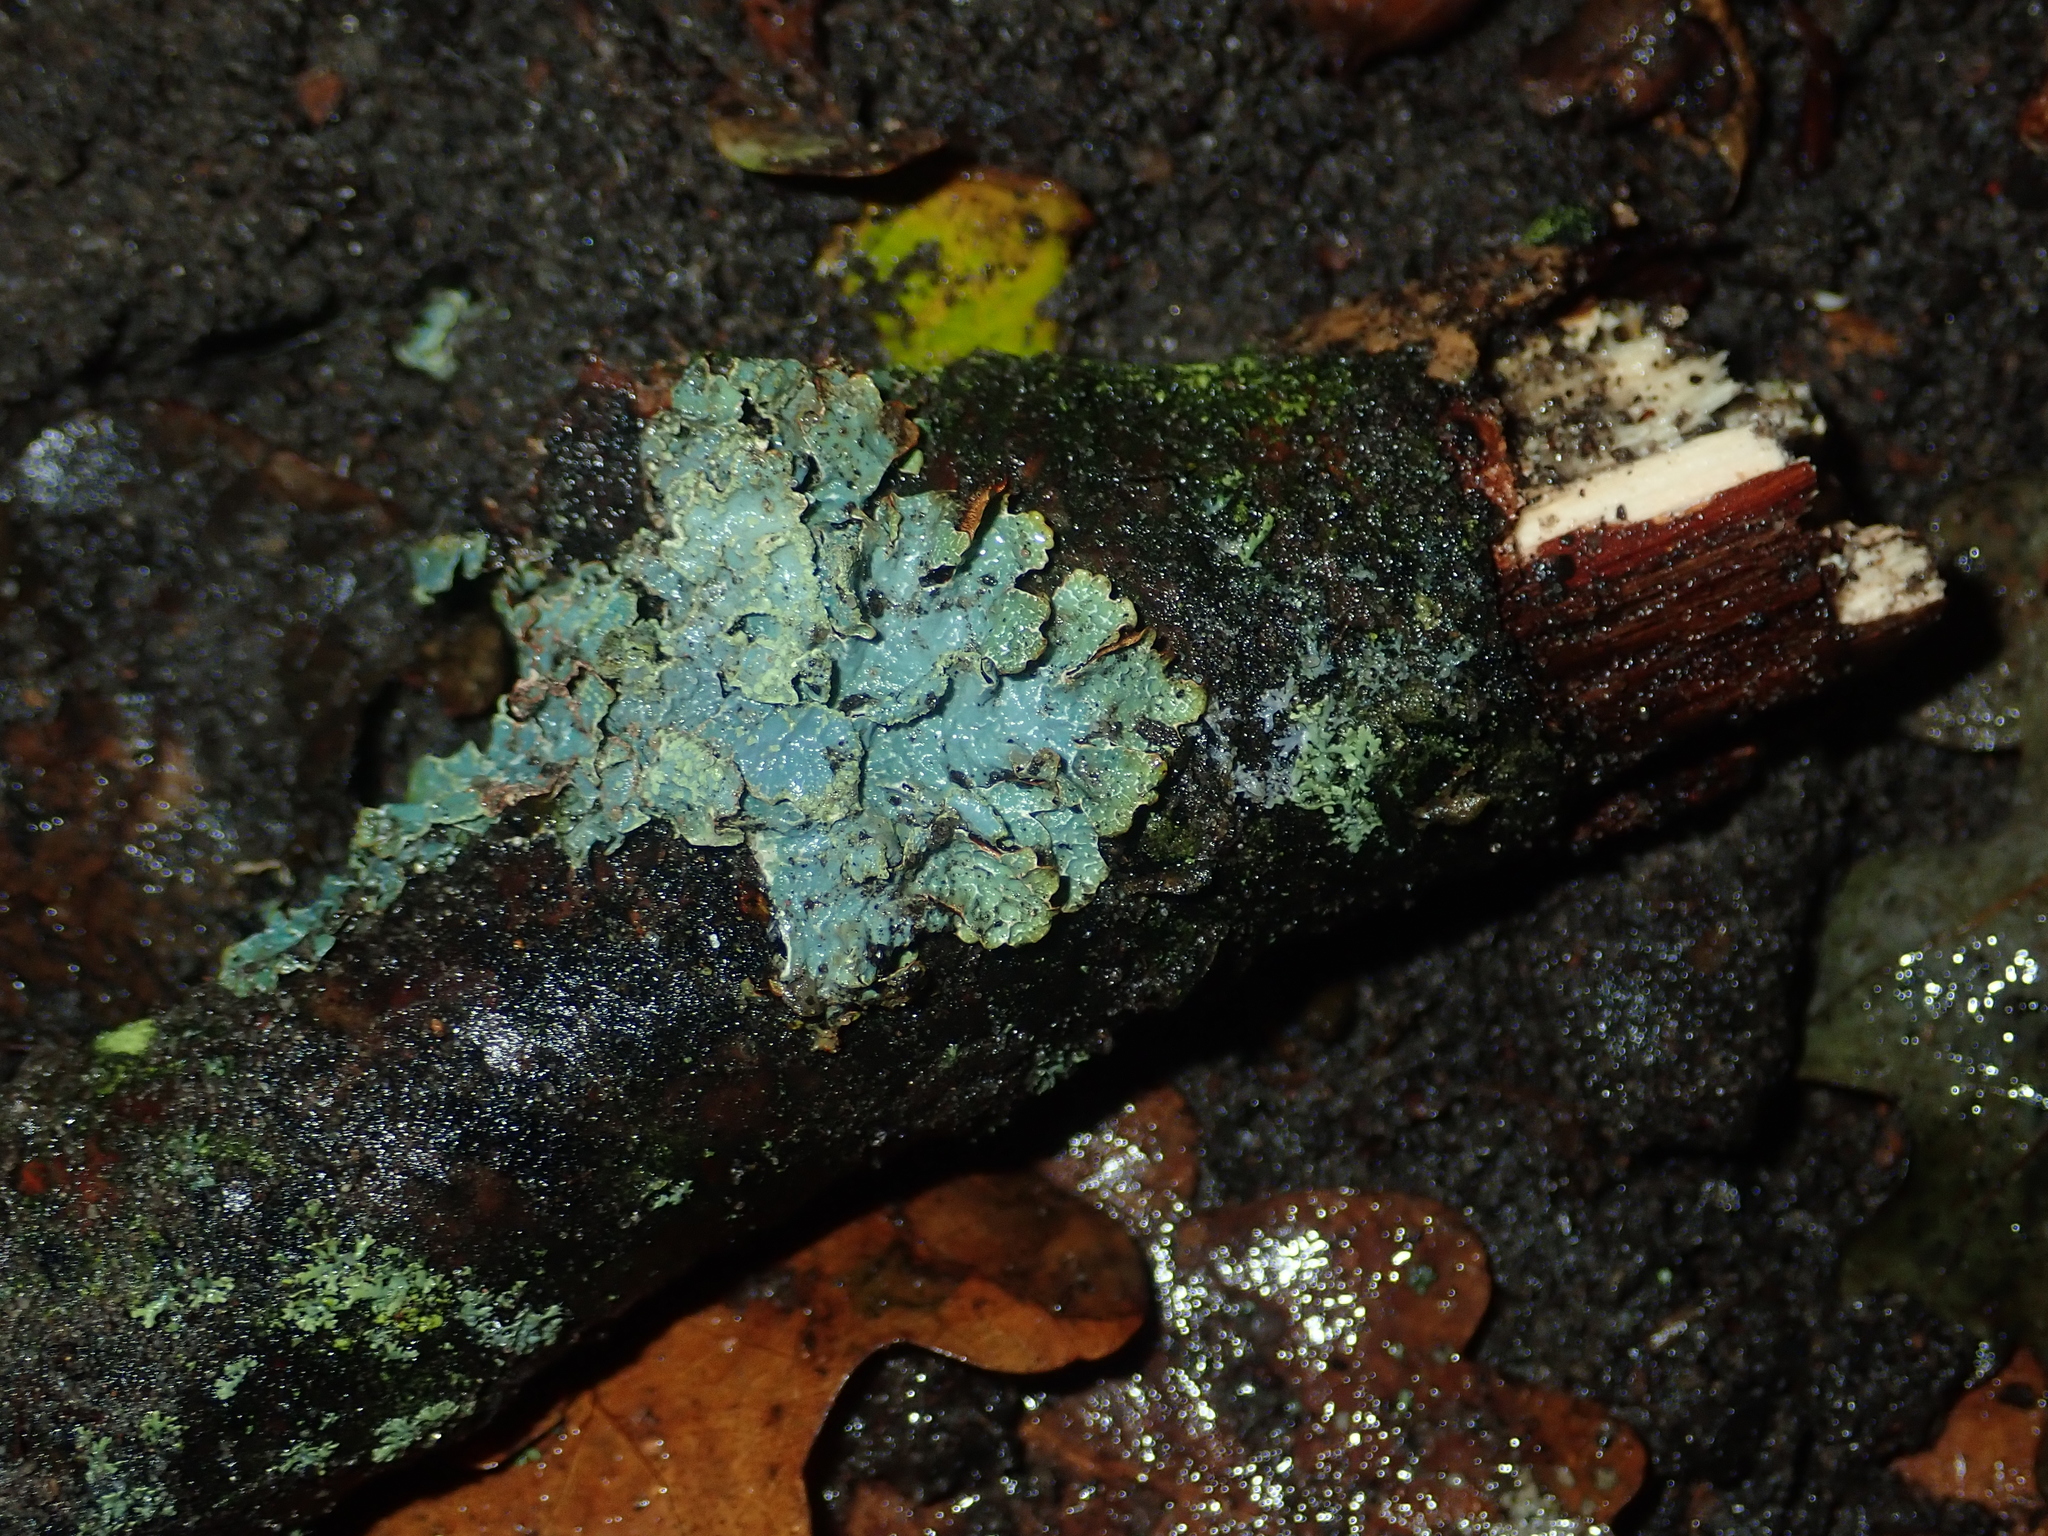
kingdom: Fungi
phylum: Ascomycota
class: Lecanoromycetes
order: Lecanorales
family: Parmeliaceae
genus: Parmelia
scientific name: Parmelia sulcata
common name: Netted shield lichen
